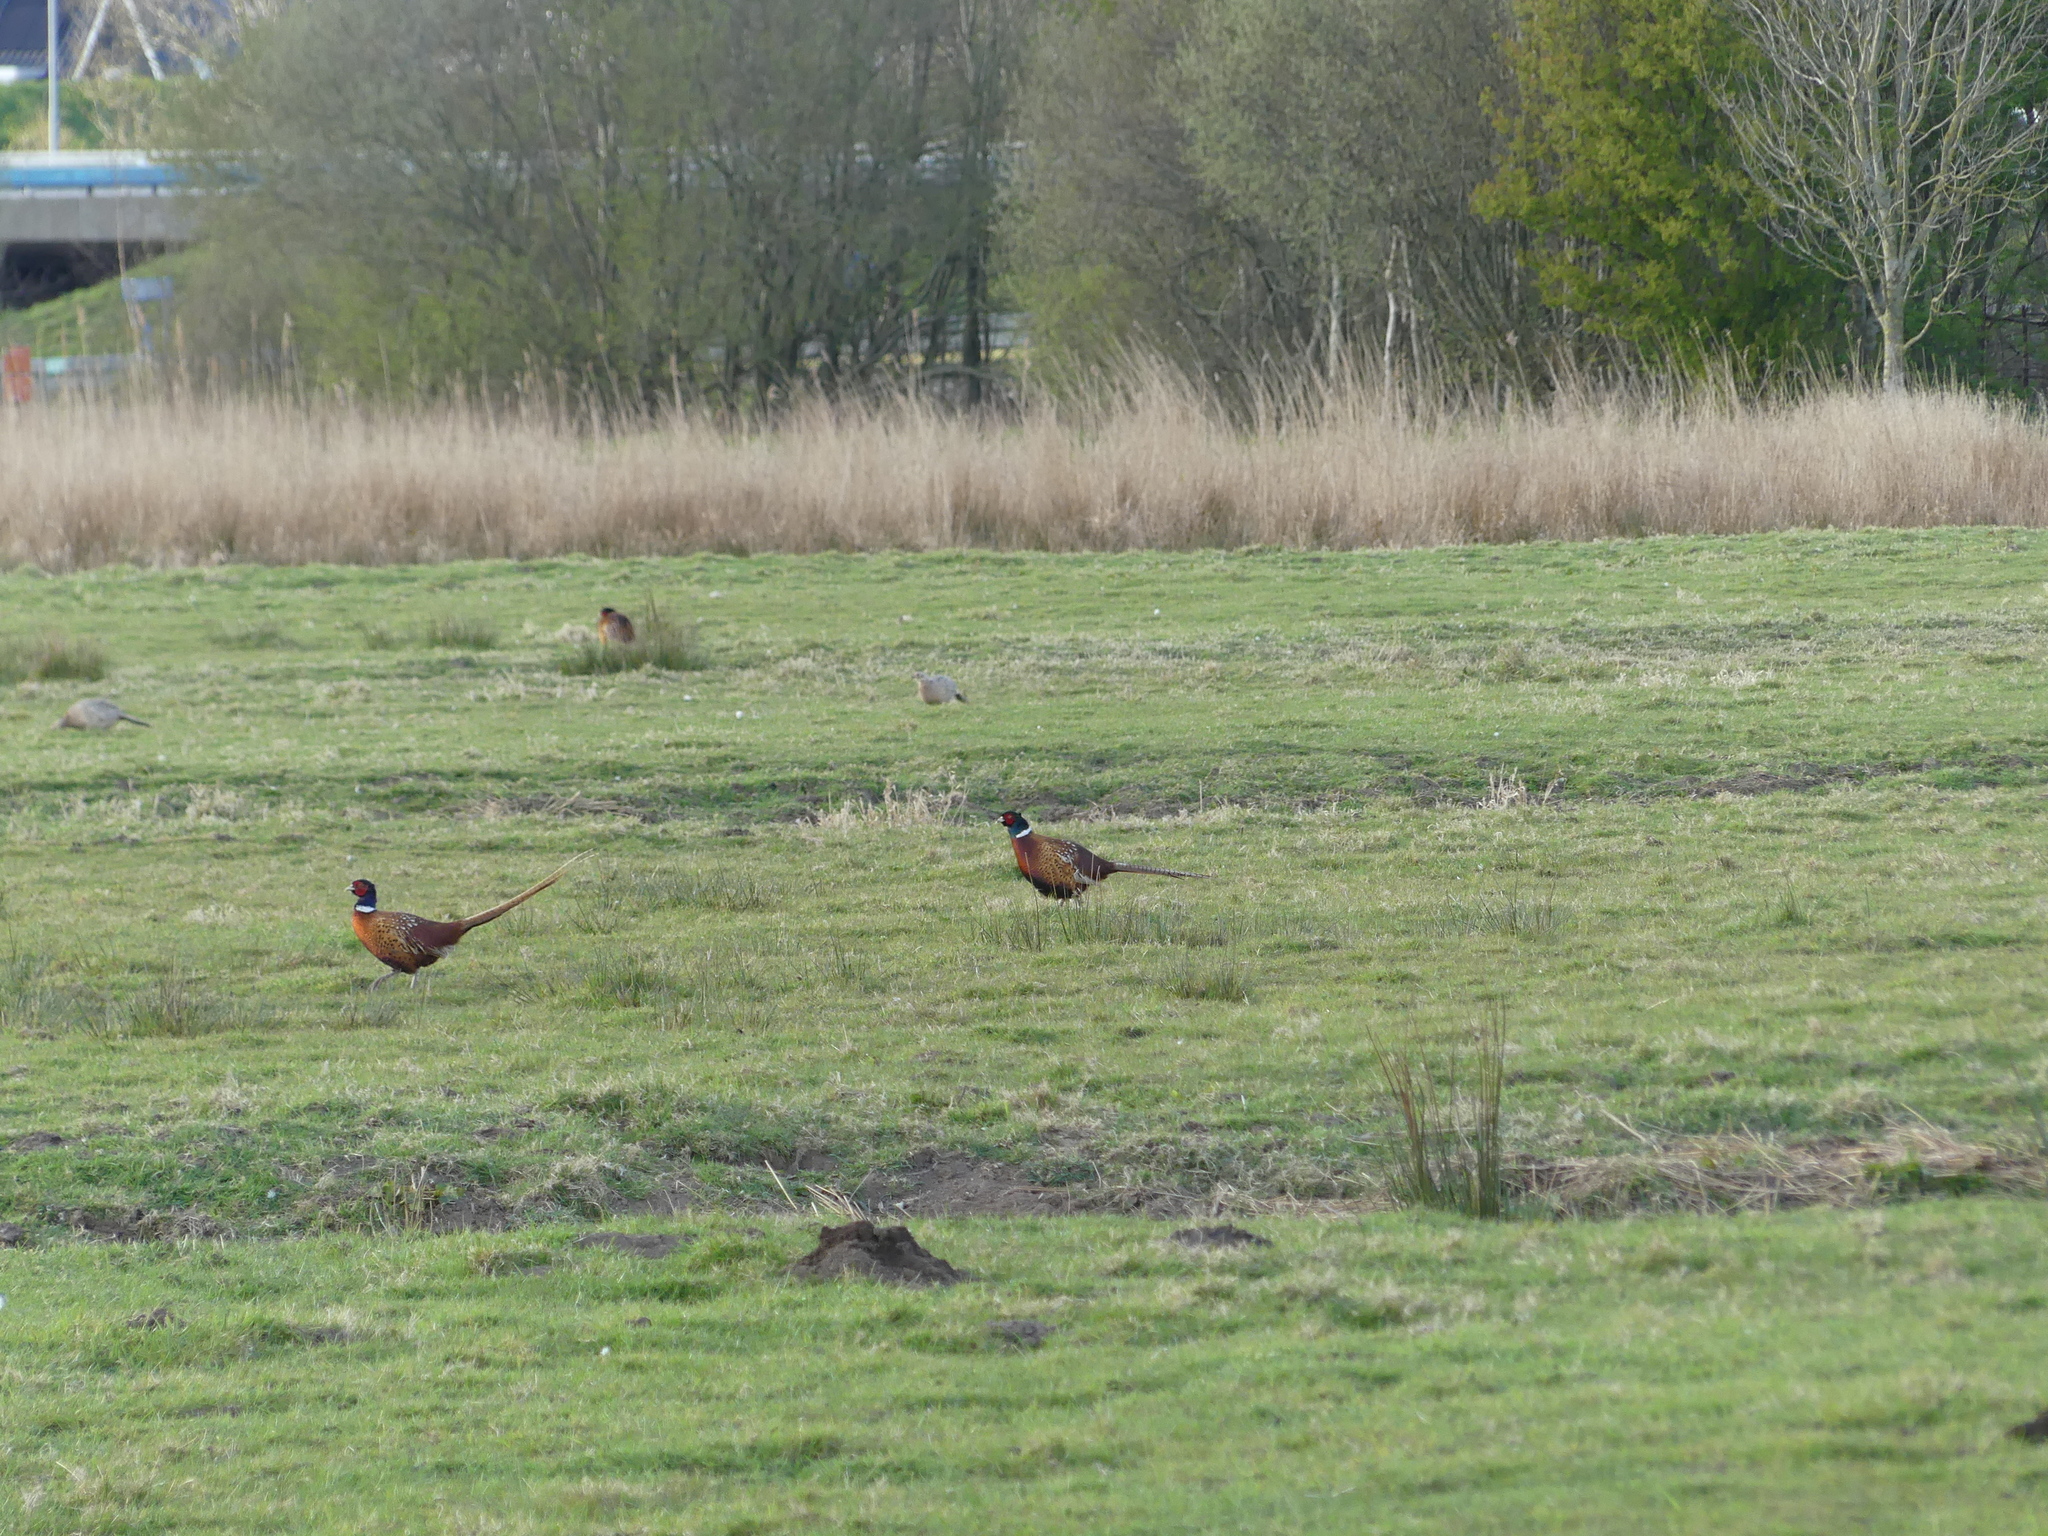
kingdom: Animalia
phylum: Chordata
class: Aves
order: Galliformes
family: Phasianidae
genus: Phasianus
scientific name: Phasianus colchicus
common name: Common pheasant
